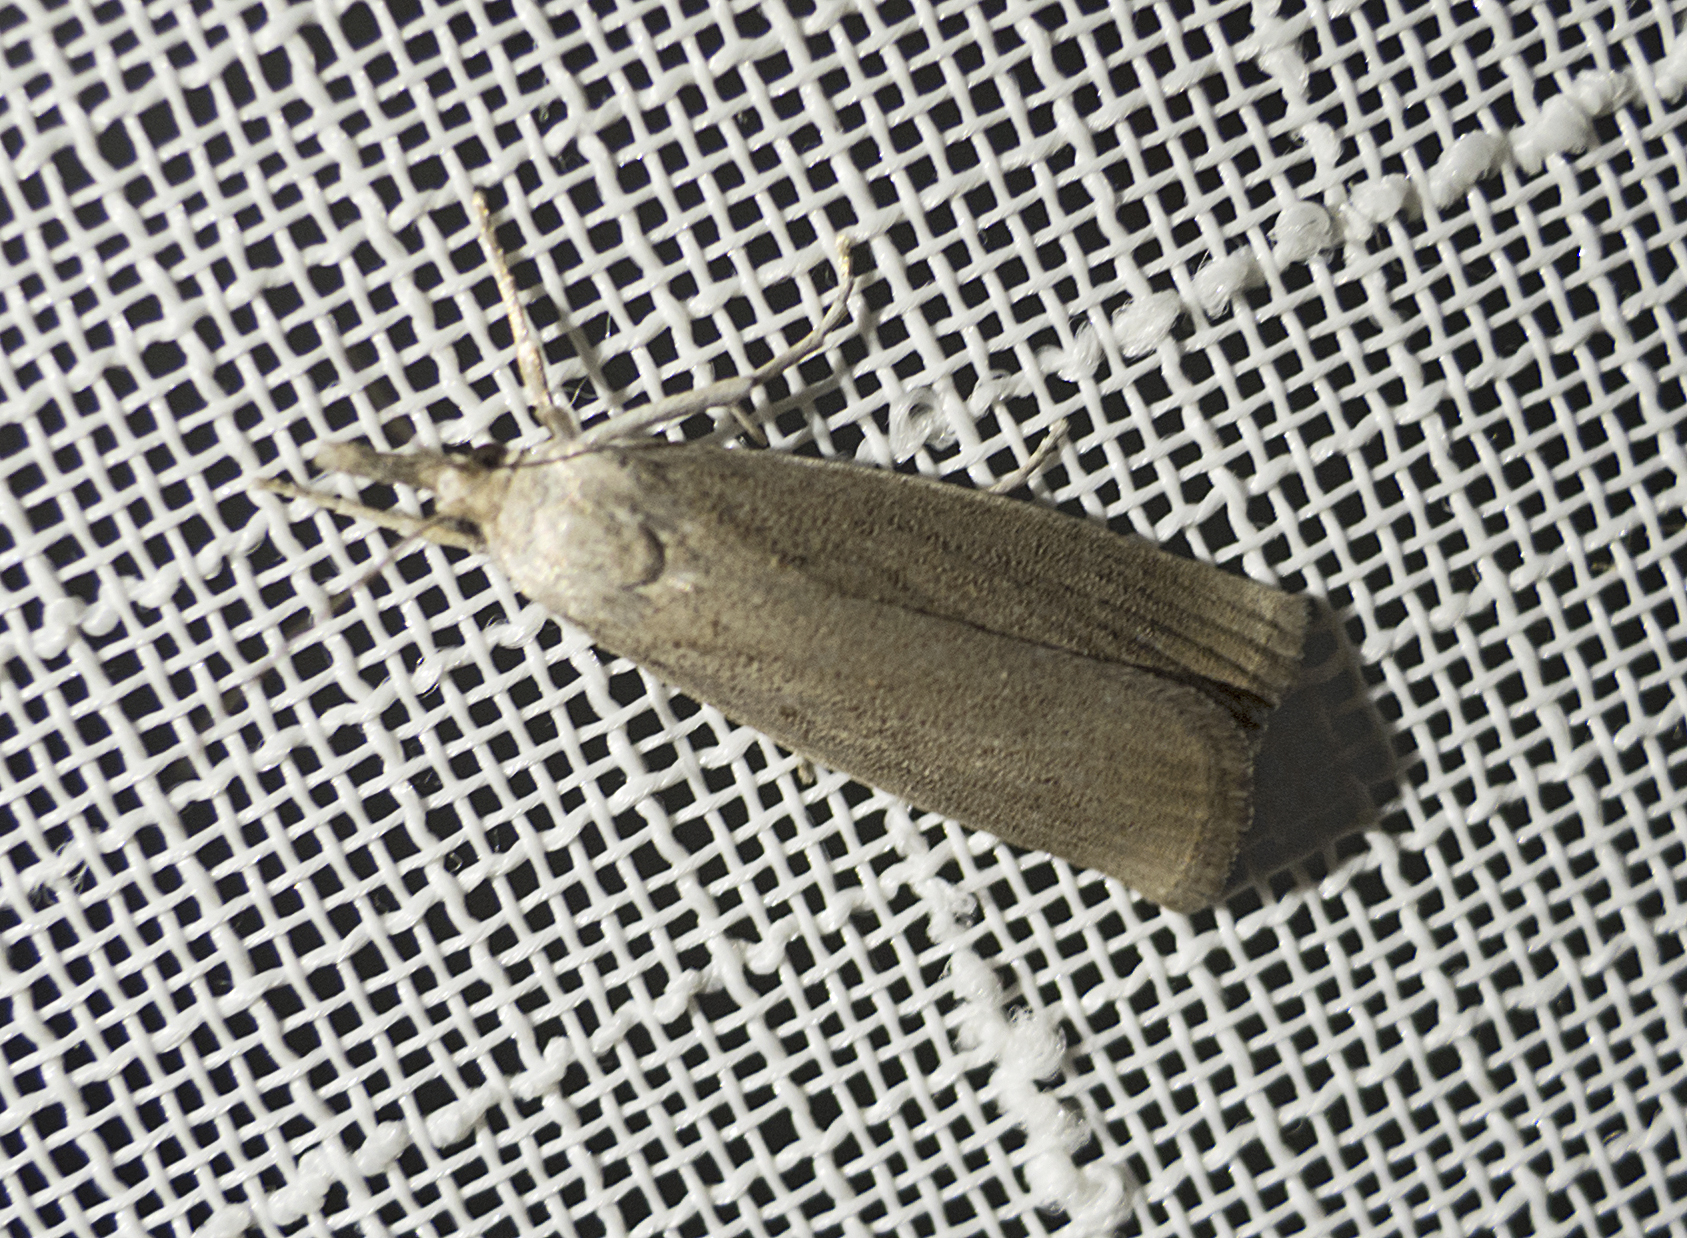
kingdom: Animalia
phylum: Arthropoda
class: Insecta
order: Lepidoptera
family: Crambidae
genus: Calamotropha
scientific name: Calamotropha paludella
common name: Bulrush veneer
